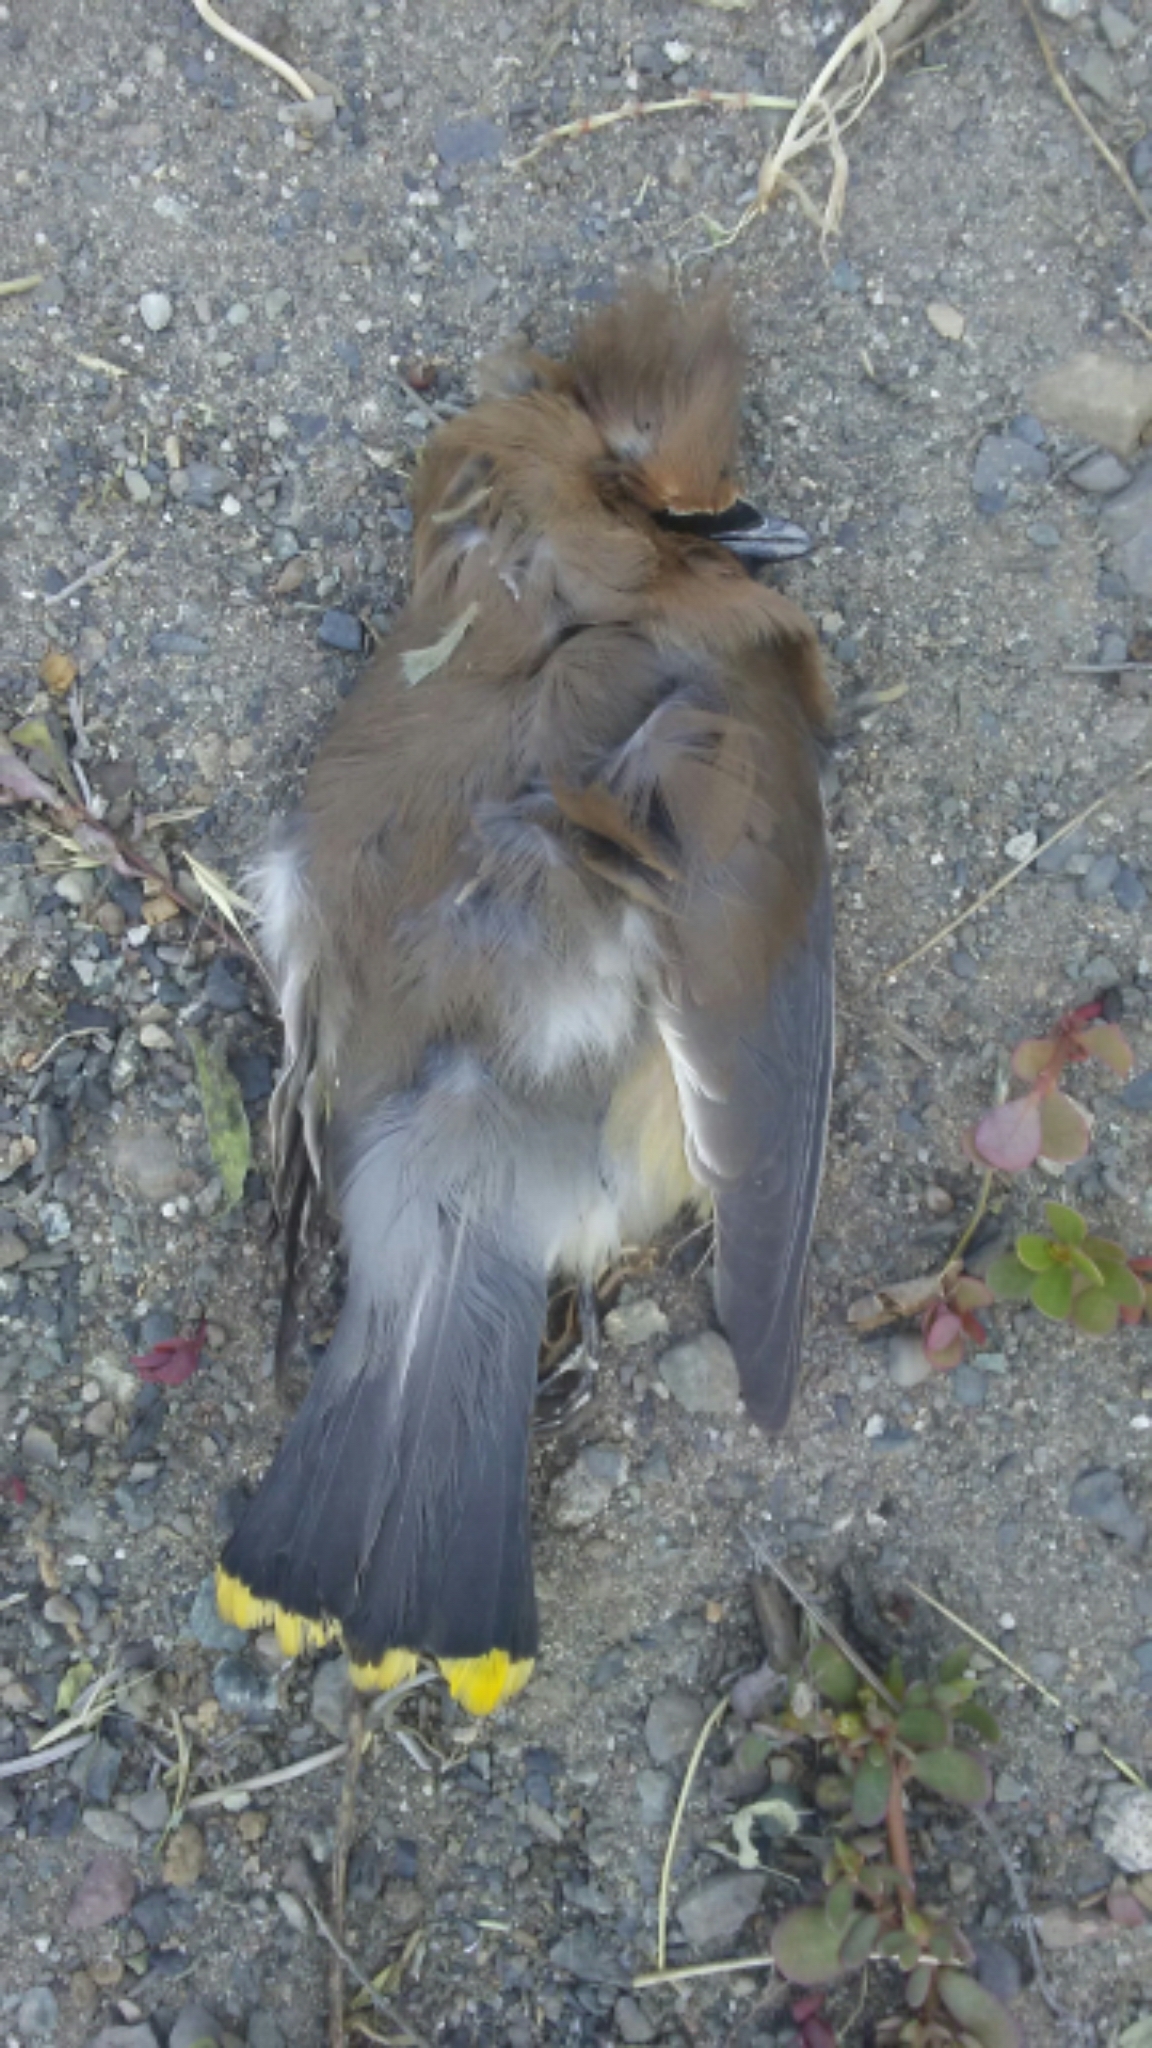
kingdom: Animalia
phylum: Chordata
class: Aves
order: Passeriformes
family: Bombycillidae
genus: Bombycilla
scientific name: Bombycilla cedrorum
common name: Cedar waxwing
